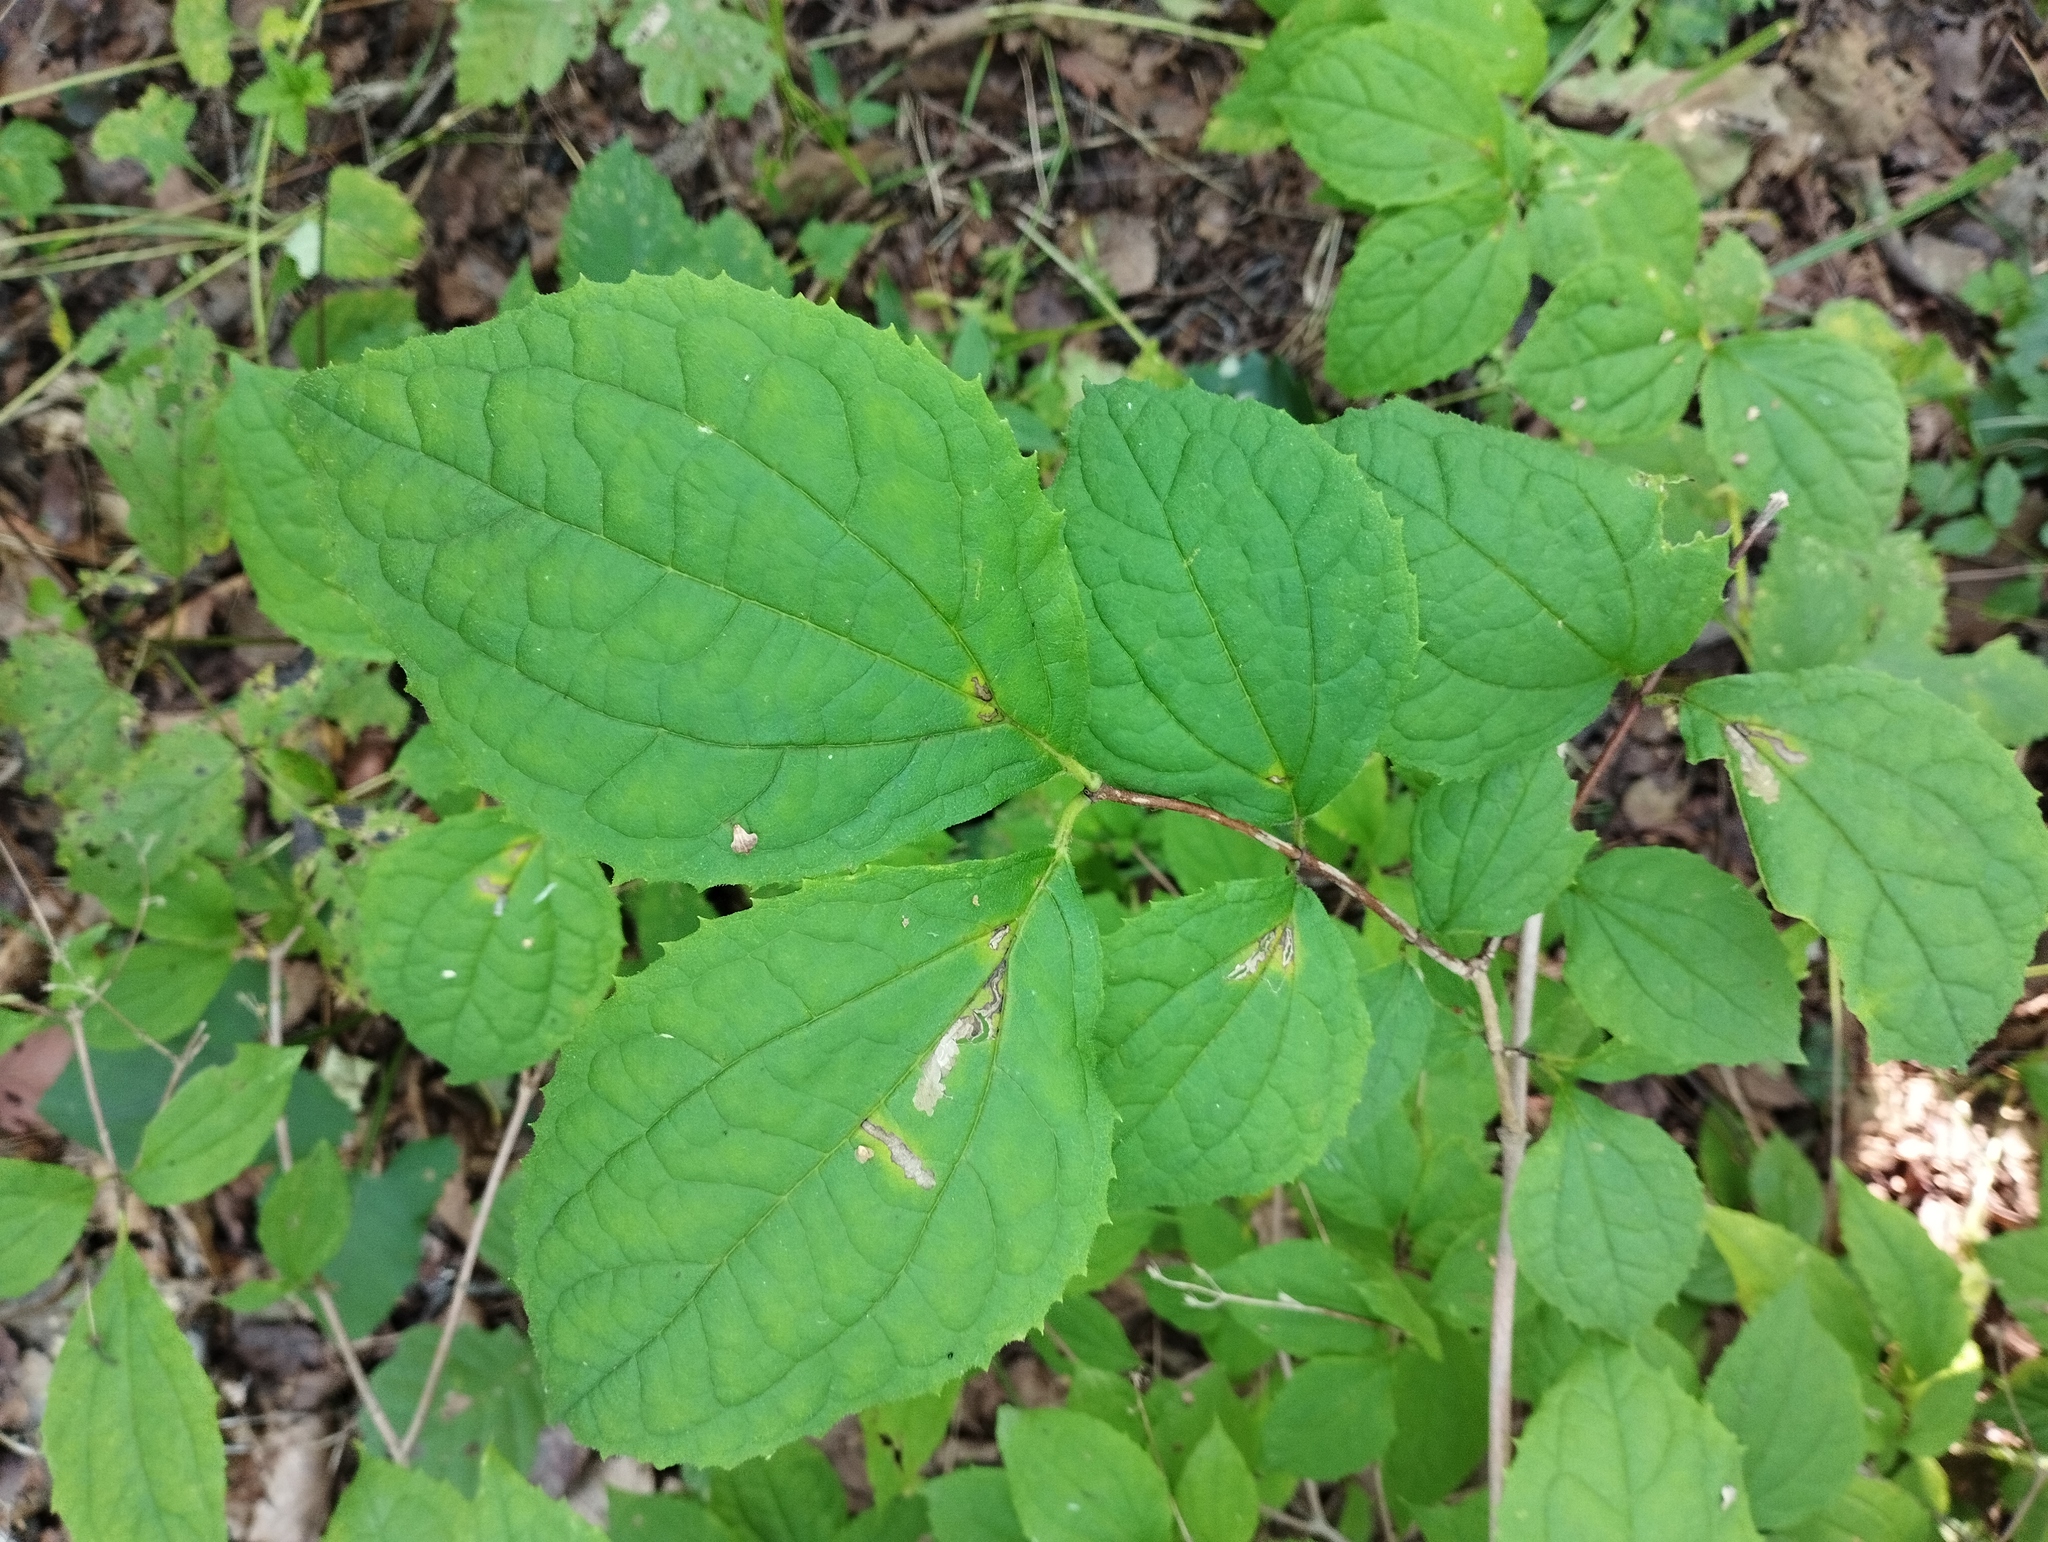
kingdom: Plantae
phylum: Tracheophyta
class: Magnoliopsida
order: Cornales
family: Hydrangeaceae
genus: Philadelphus
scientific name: Philadelphus tenuifolius
